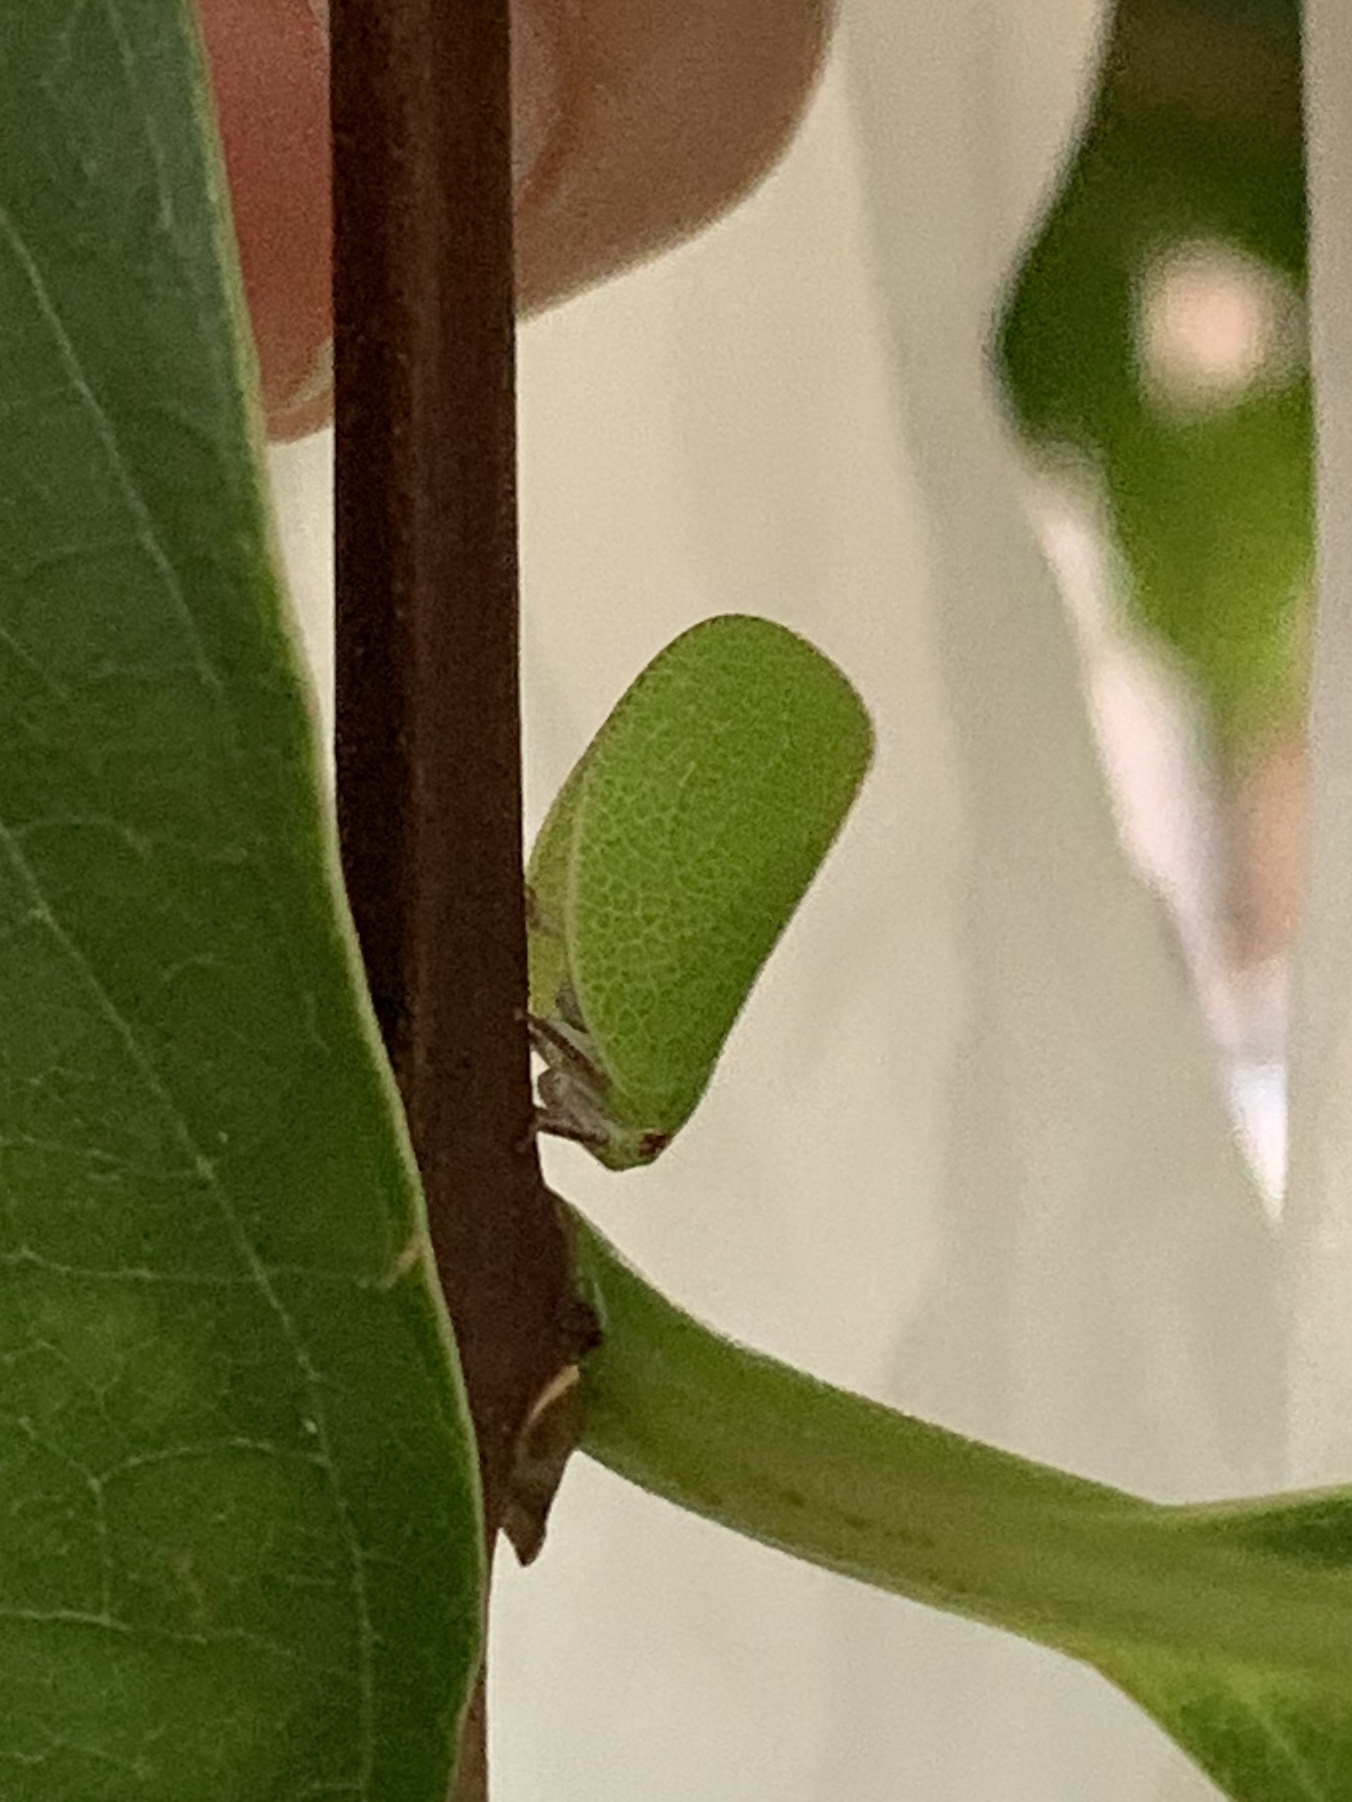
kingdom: Animalia
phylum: Arthropoda
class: Insecta
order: Hemiptera
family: Acanaloniidae
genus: Acanalonia
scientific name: Acanalonia servillei
